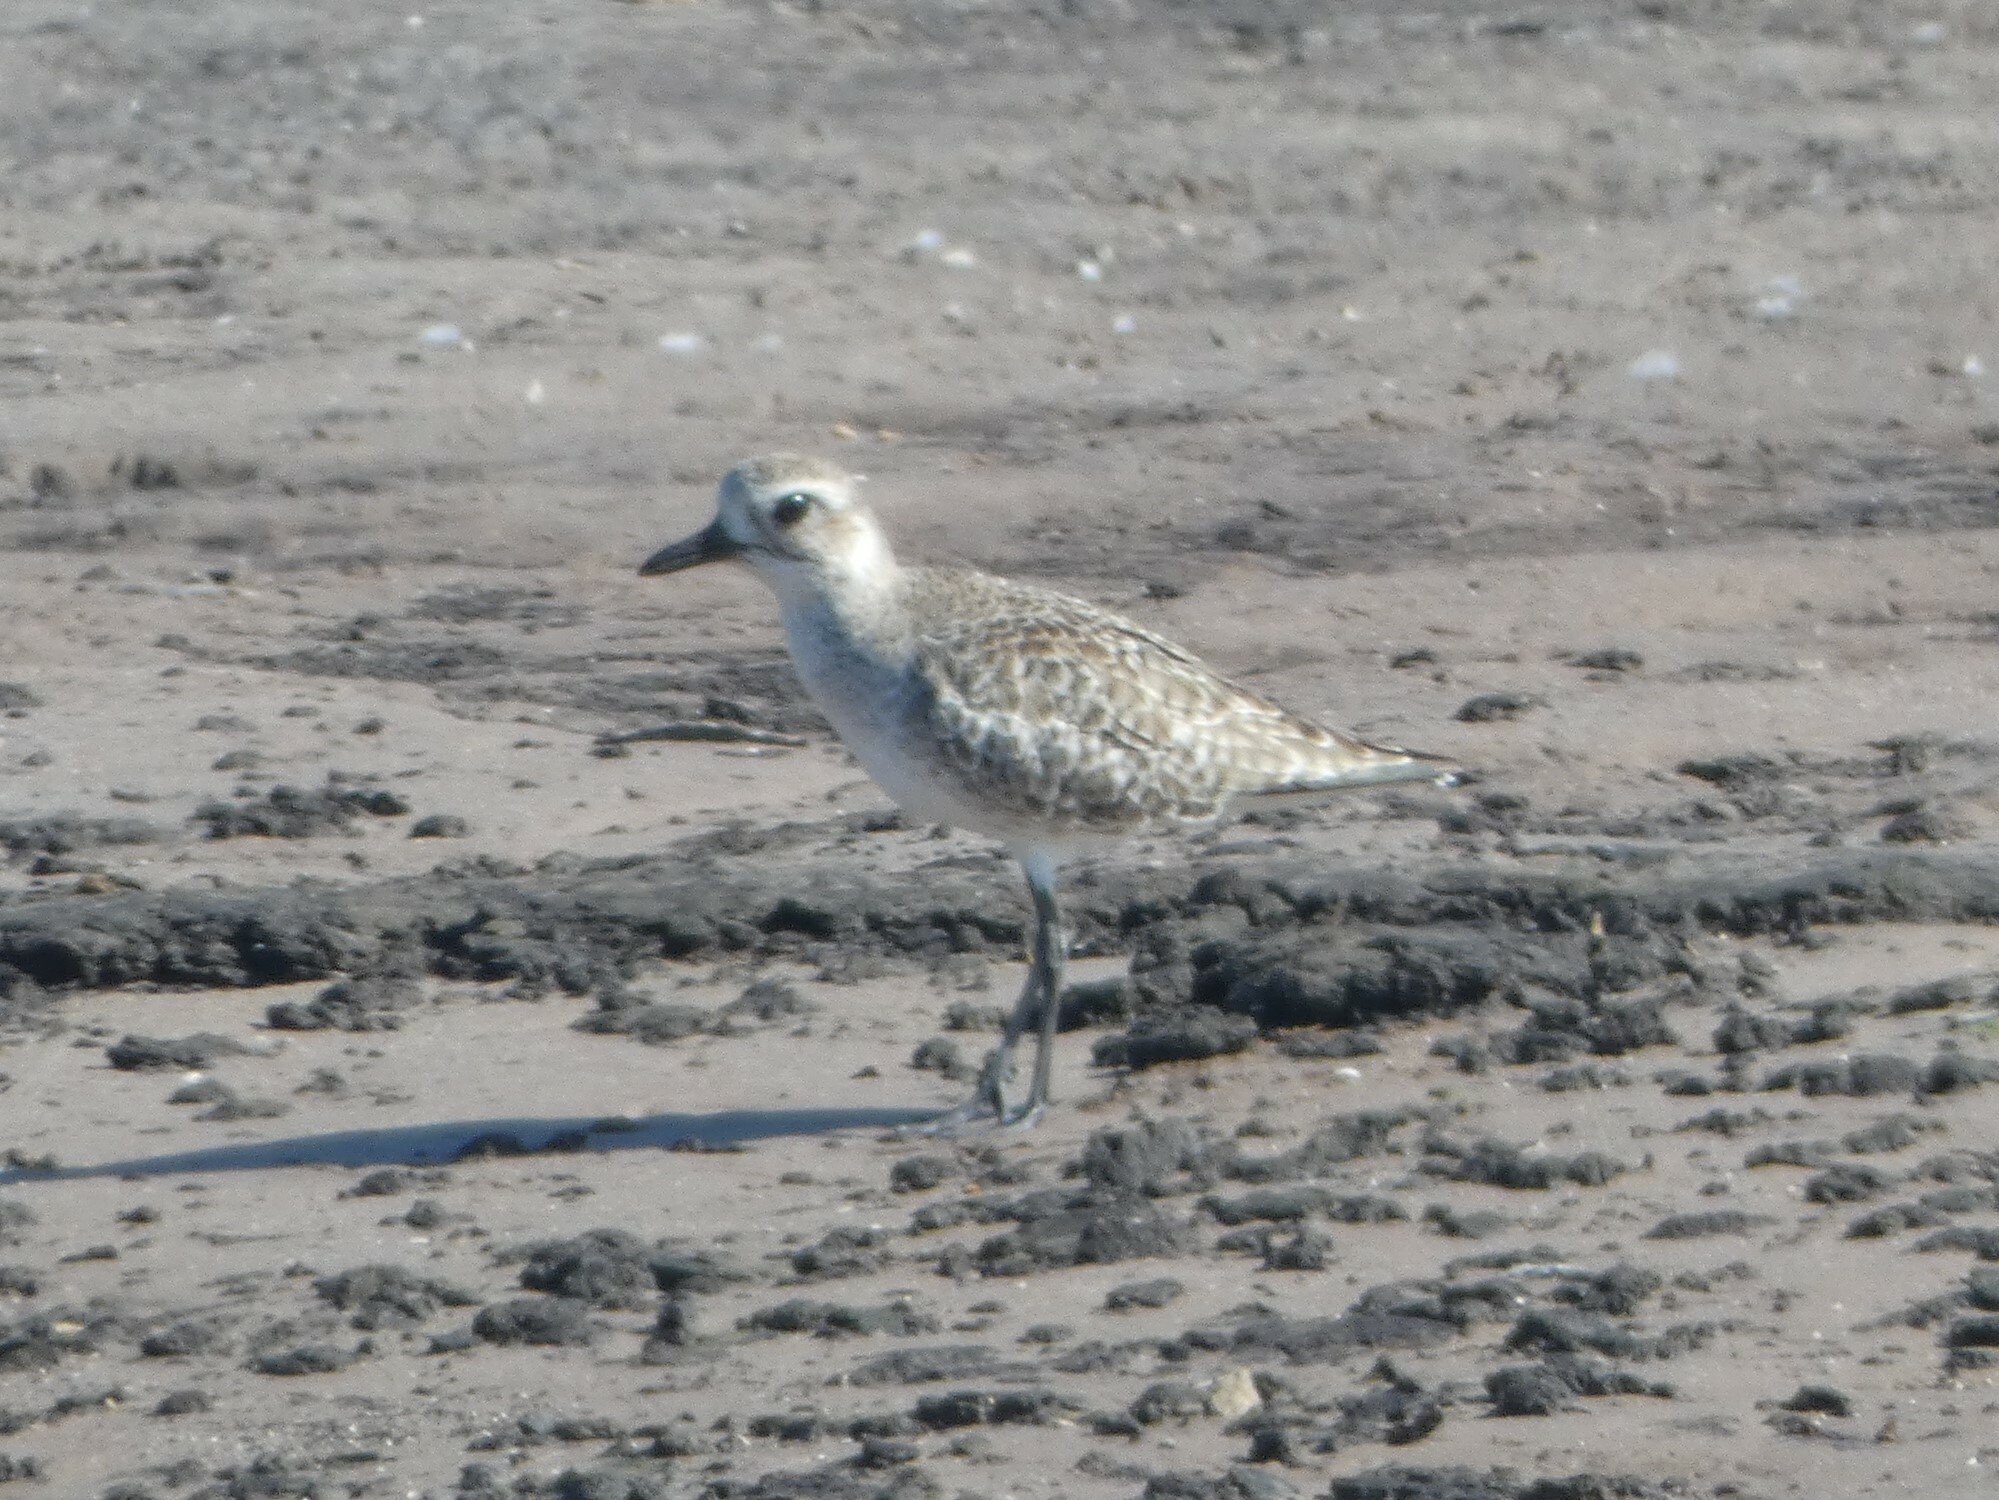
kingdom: Animalia
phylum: Chordata
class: Aves
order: Charadriiformes
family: Charadriidae
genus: Pluvialis
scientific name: Pluvialis squatarola
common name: Grey plover
